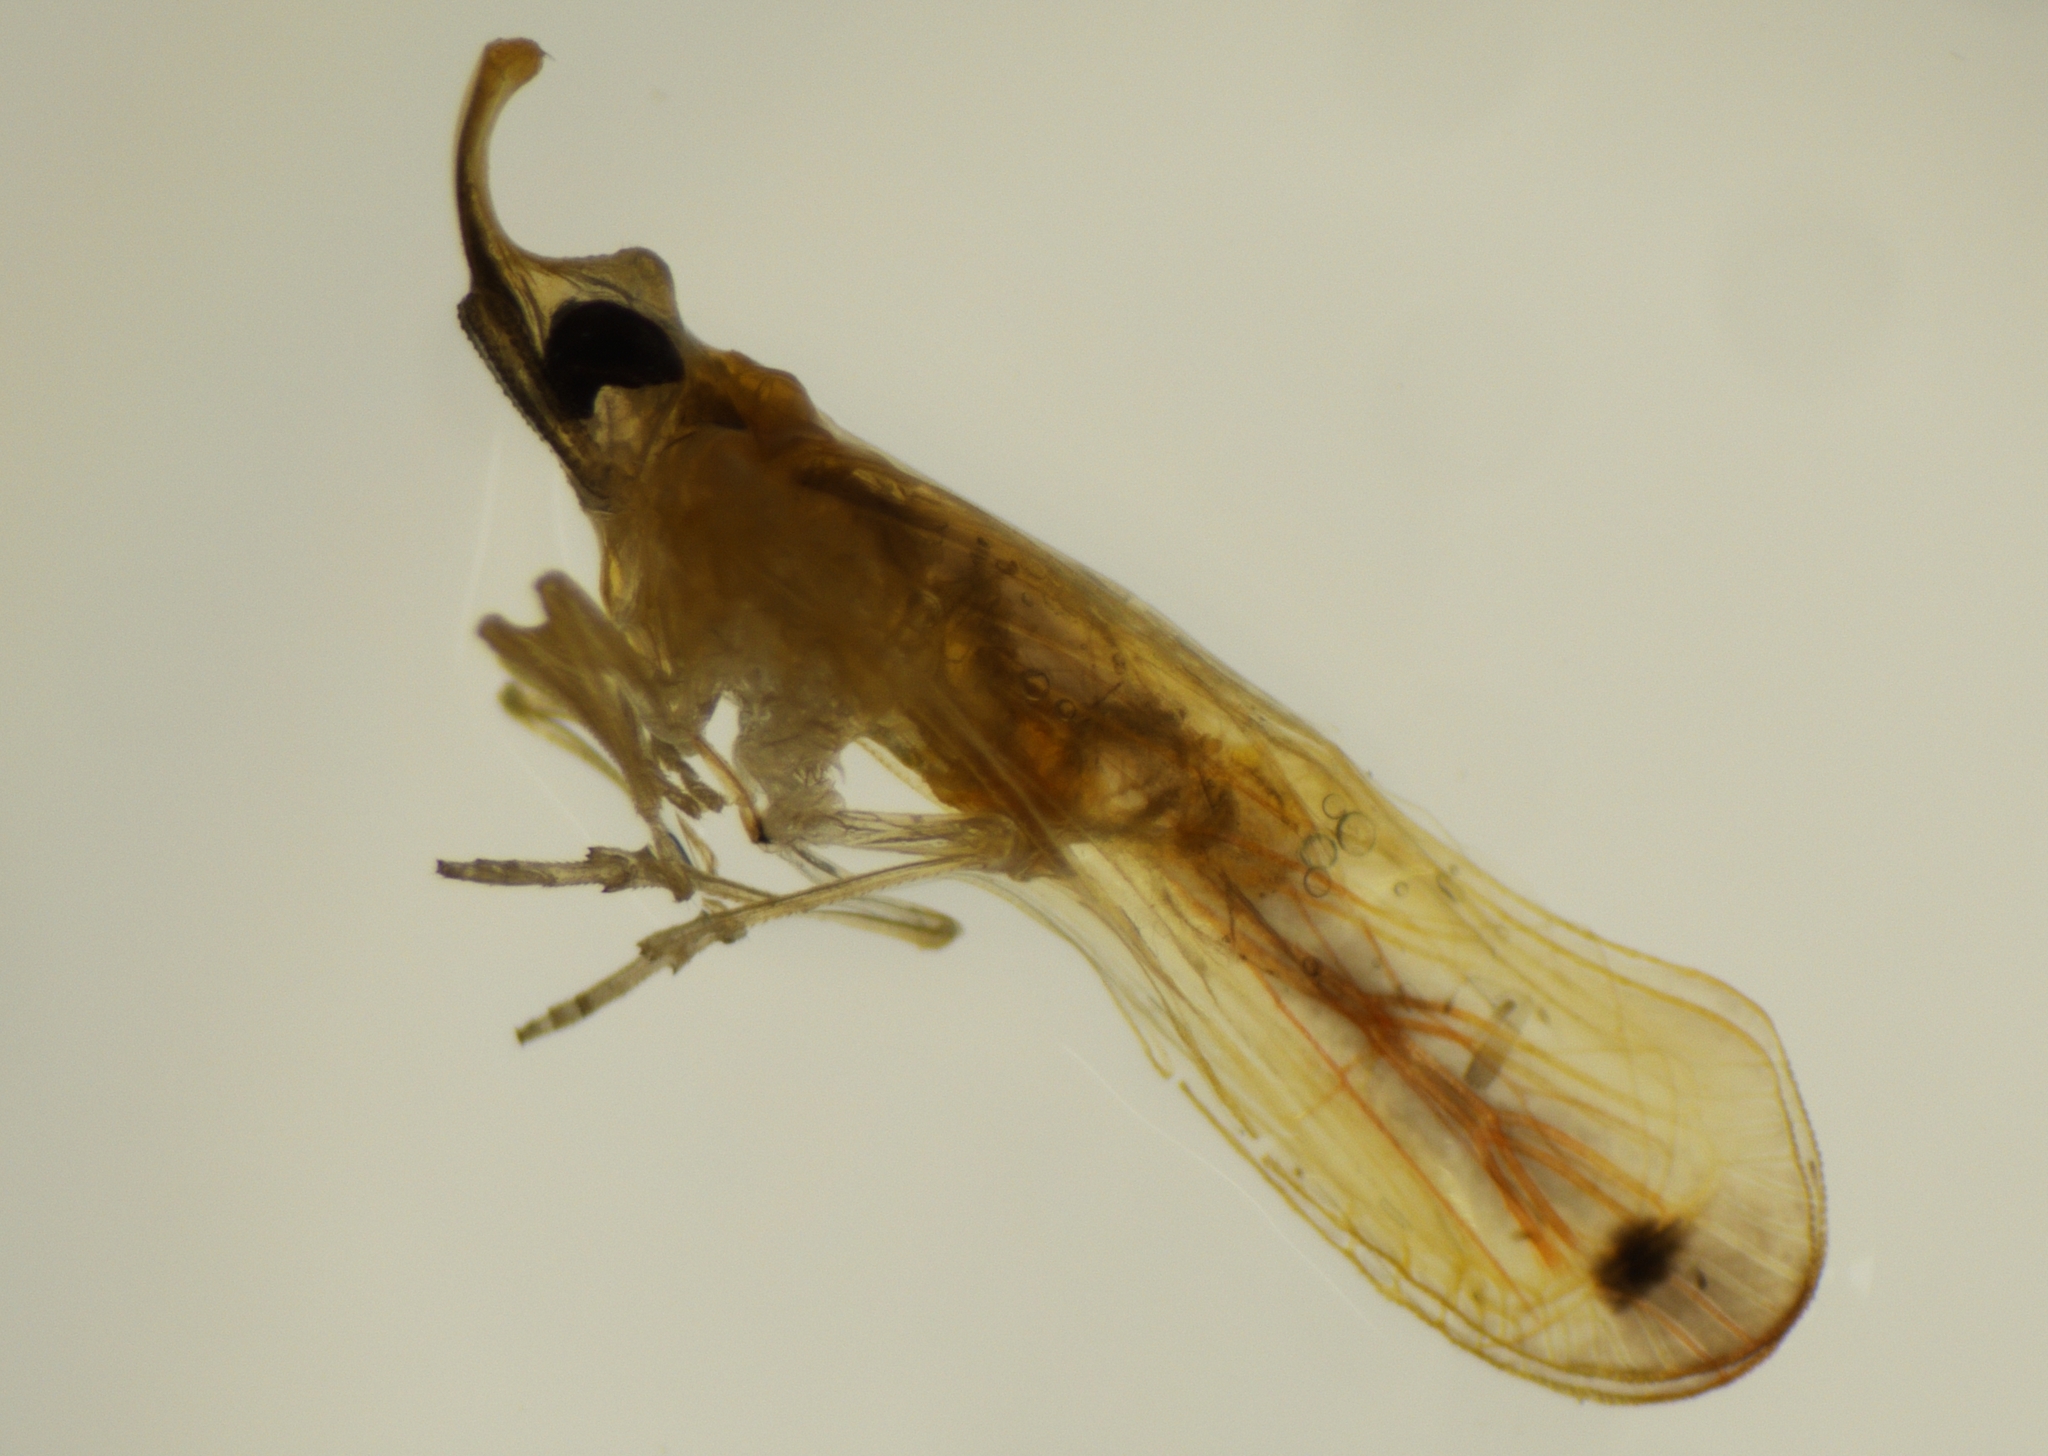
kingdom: Animalia
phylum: Arthropoda
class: Insecta
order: Hemiptera
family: Derbidae
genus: Swezeyia
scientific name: Swezeyia lyricen
